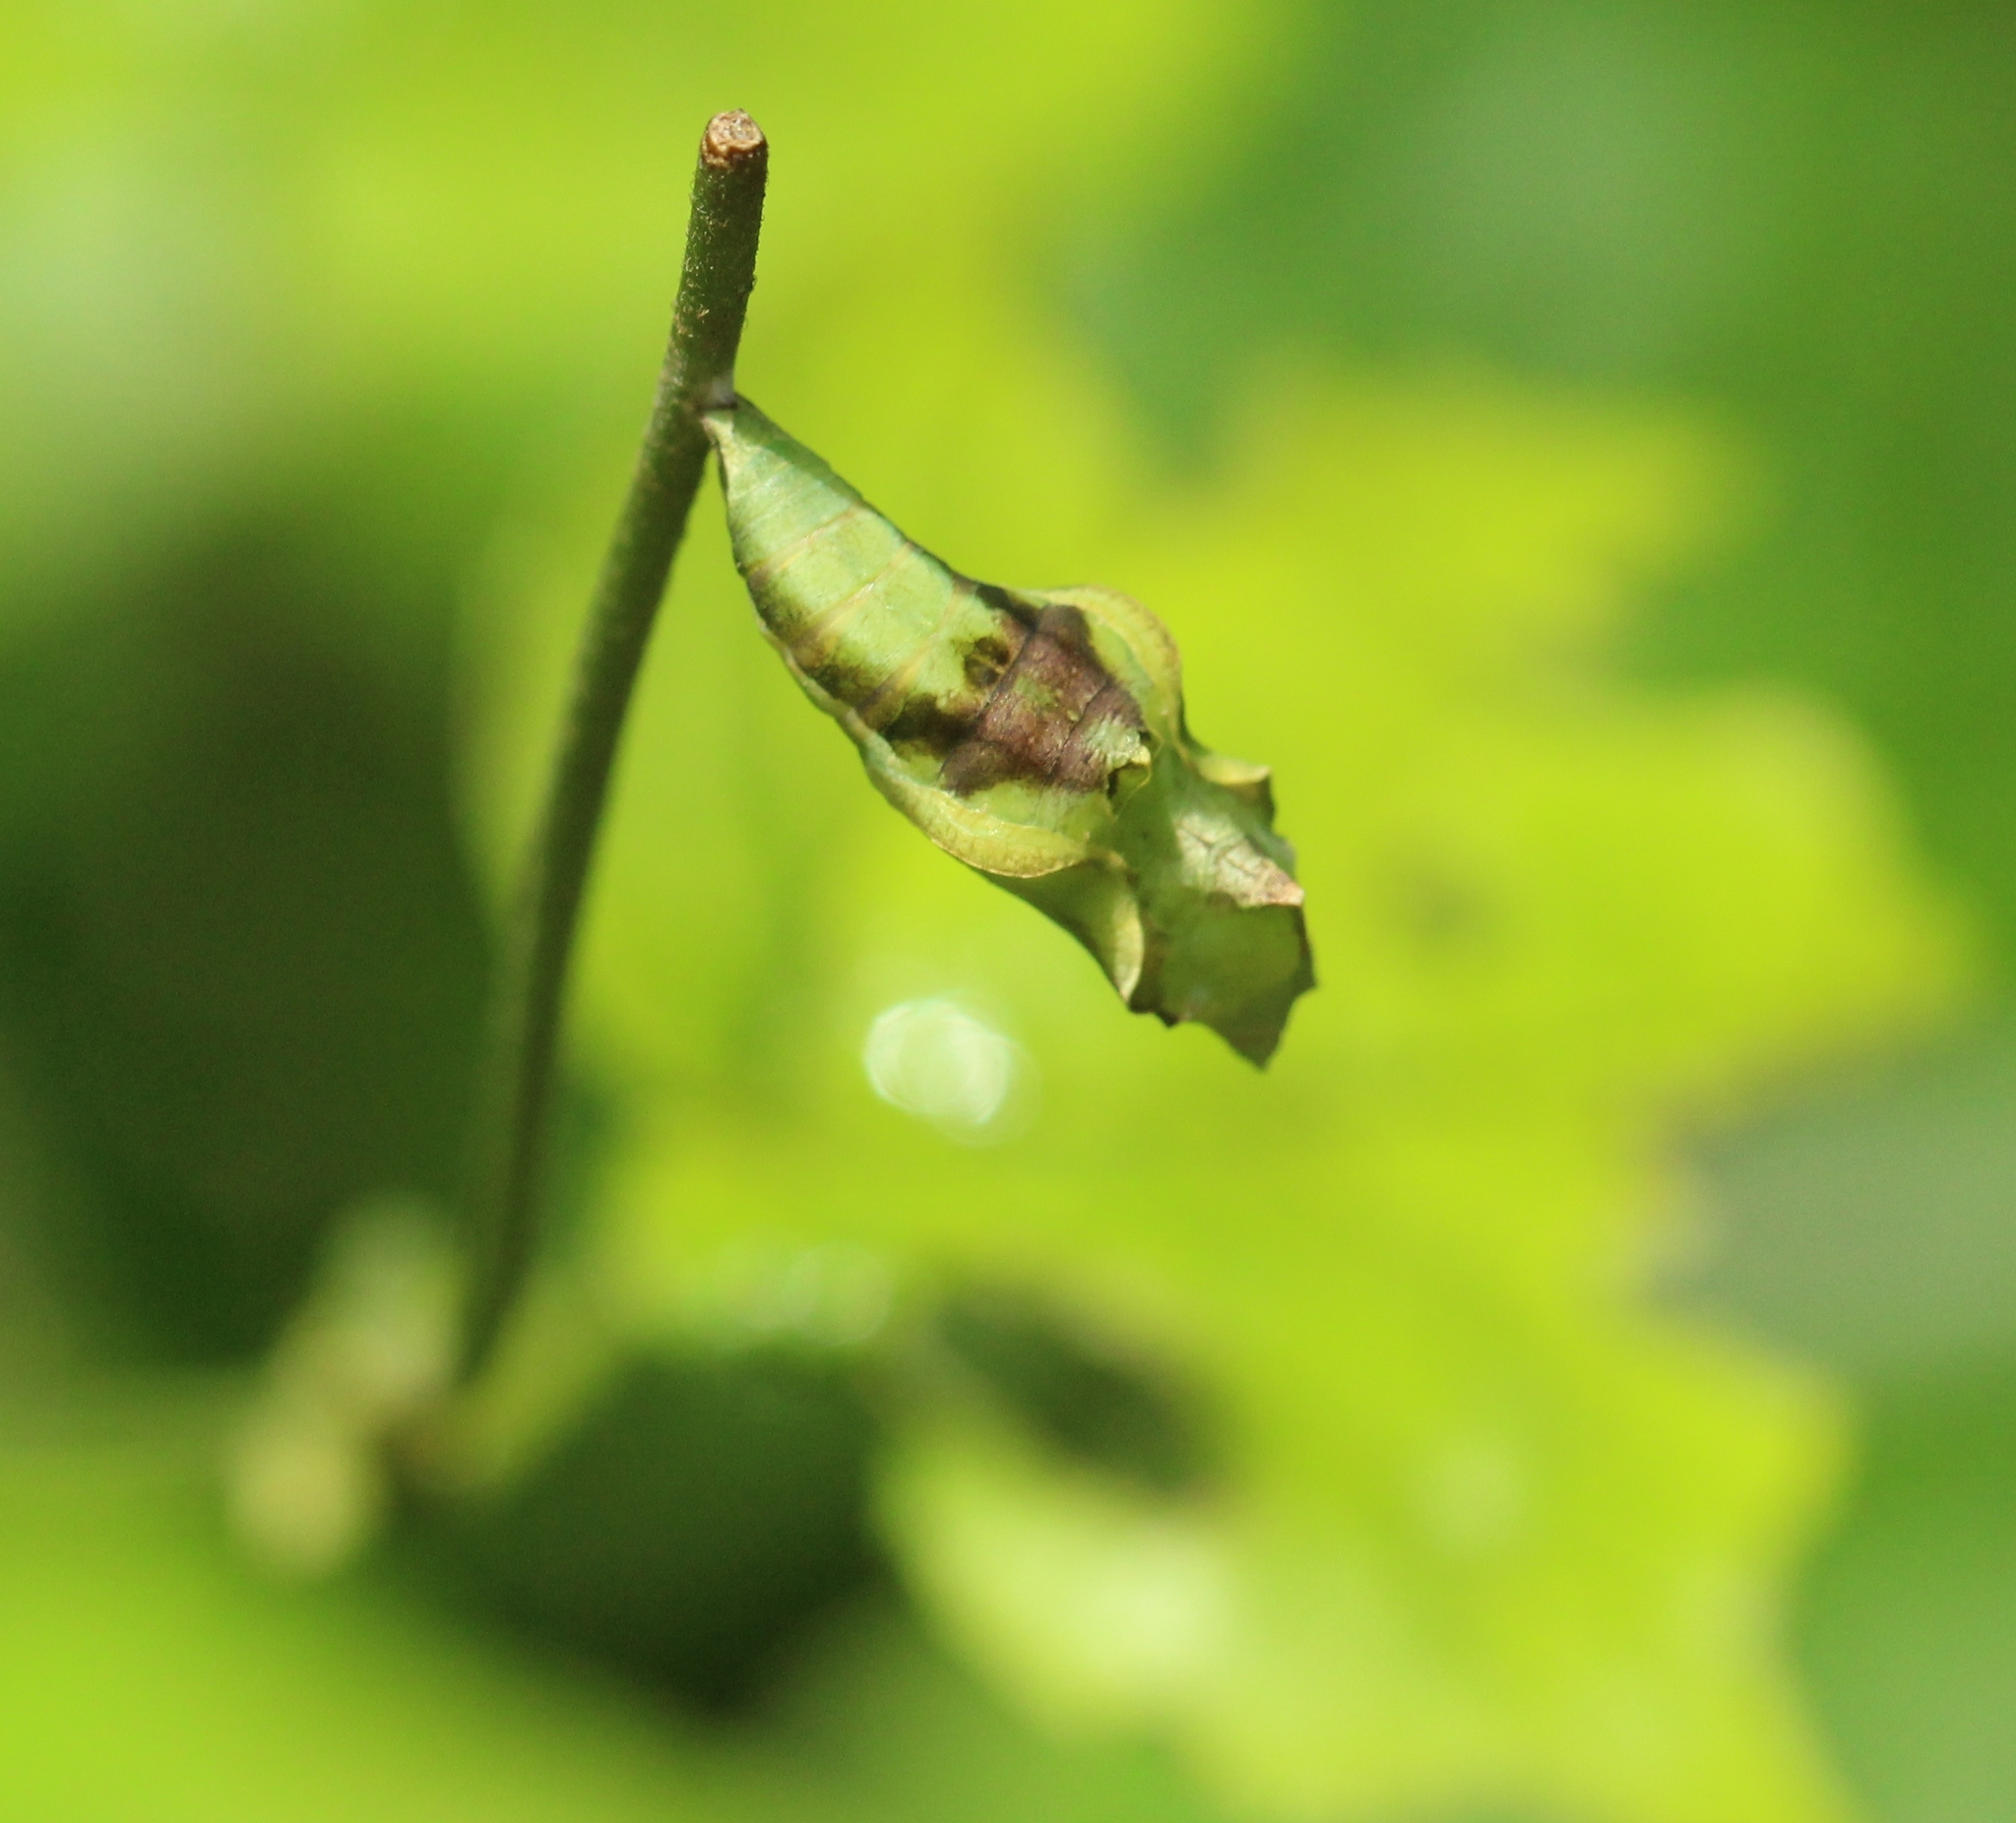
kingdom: Animalia
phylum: Arthropoda
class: Insecta
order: Lepidoptera
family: Nymphalidae
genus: Ariadne
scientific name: Ariadne merione
